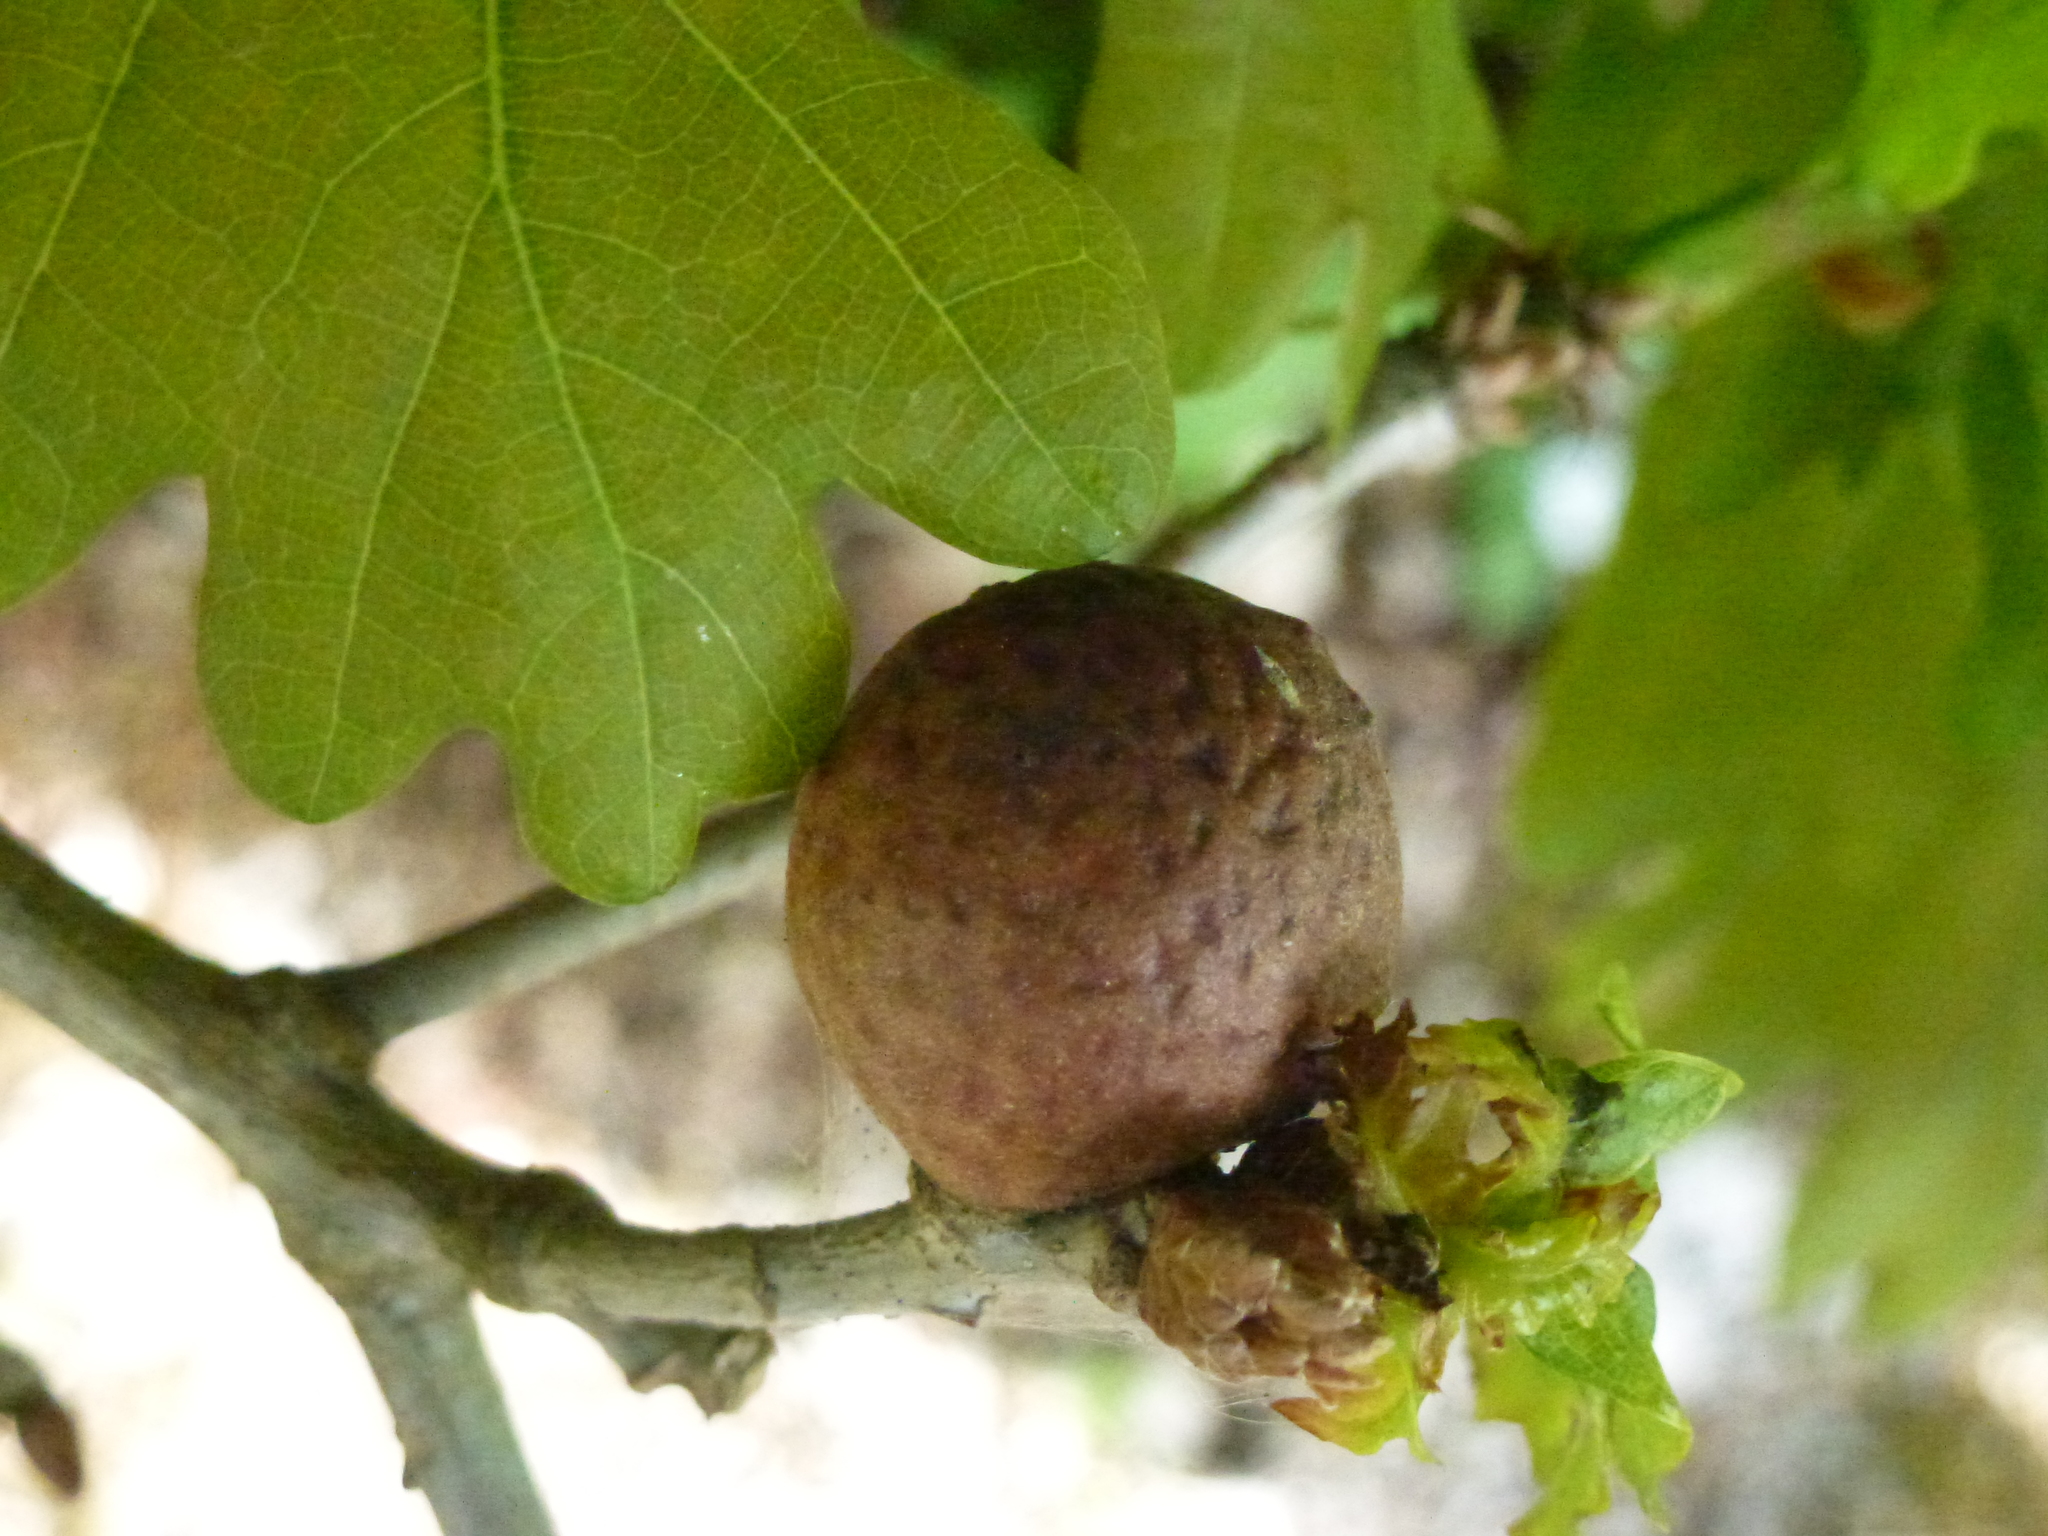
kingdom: Animalia
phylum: Arthropoda
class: Insecta
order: Hymenoptera
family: Cynipidae
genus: Andricus
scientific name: Andricus kollari
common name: Marble gall
